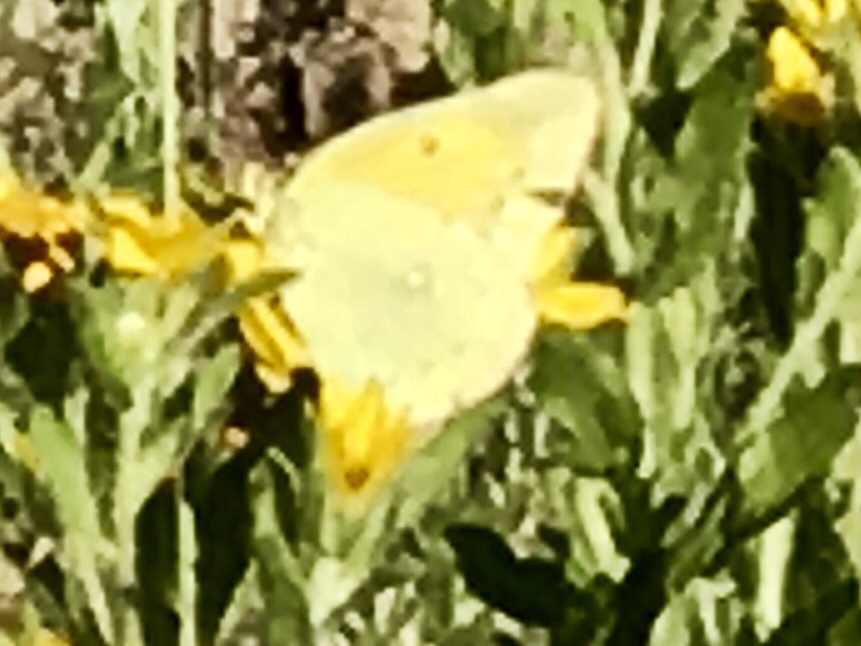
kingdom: Animalia
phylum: Arthropoda
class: Insecta
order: Lepidoptera
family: Pieridae
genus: Colias
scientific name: Colias eurytheme
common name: Alfalfa butterfly
